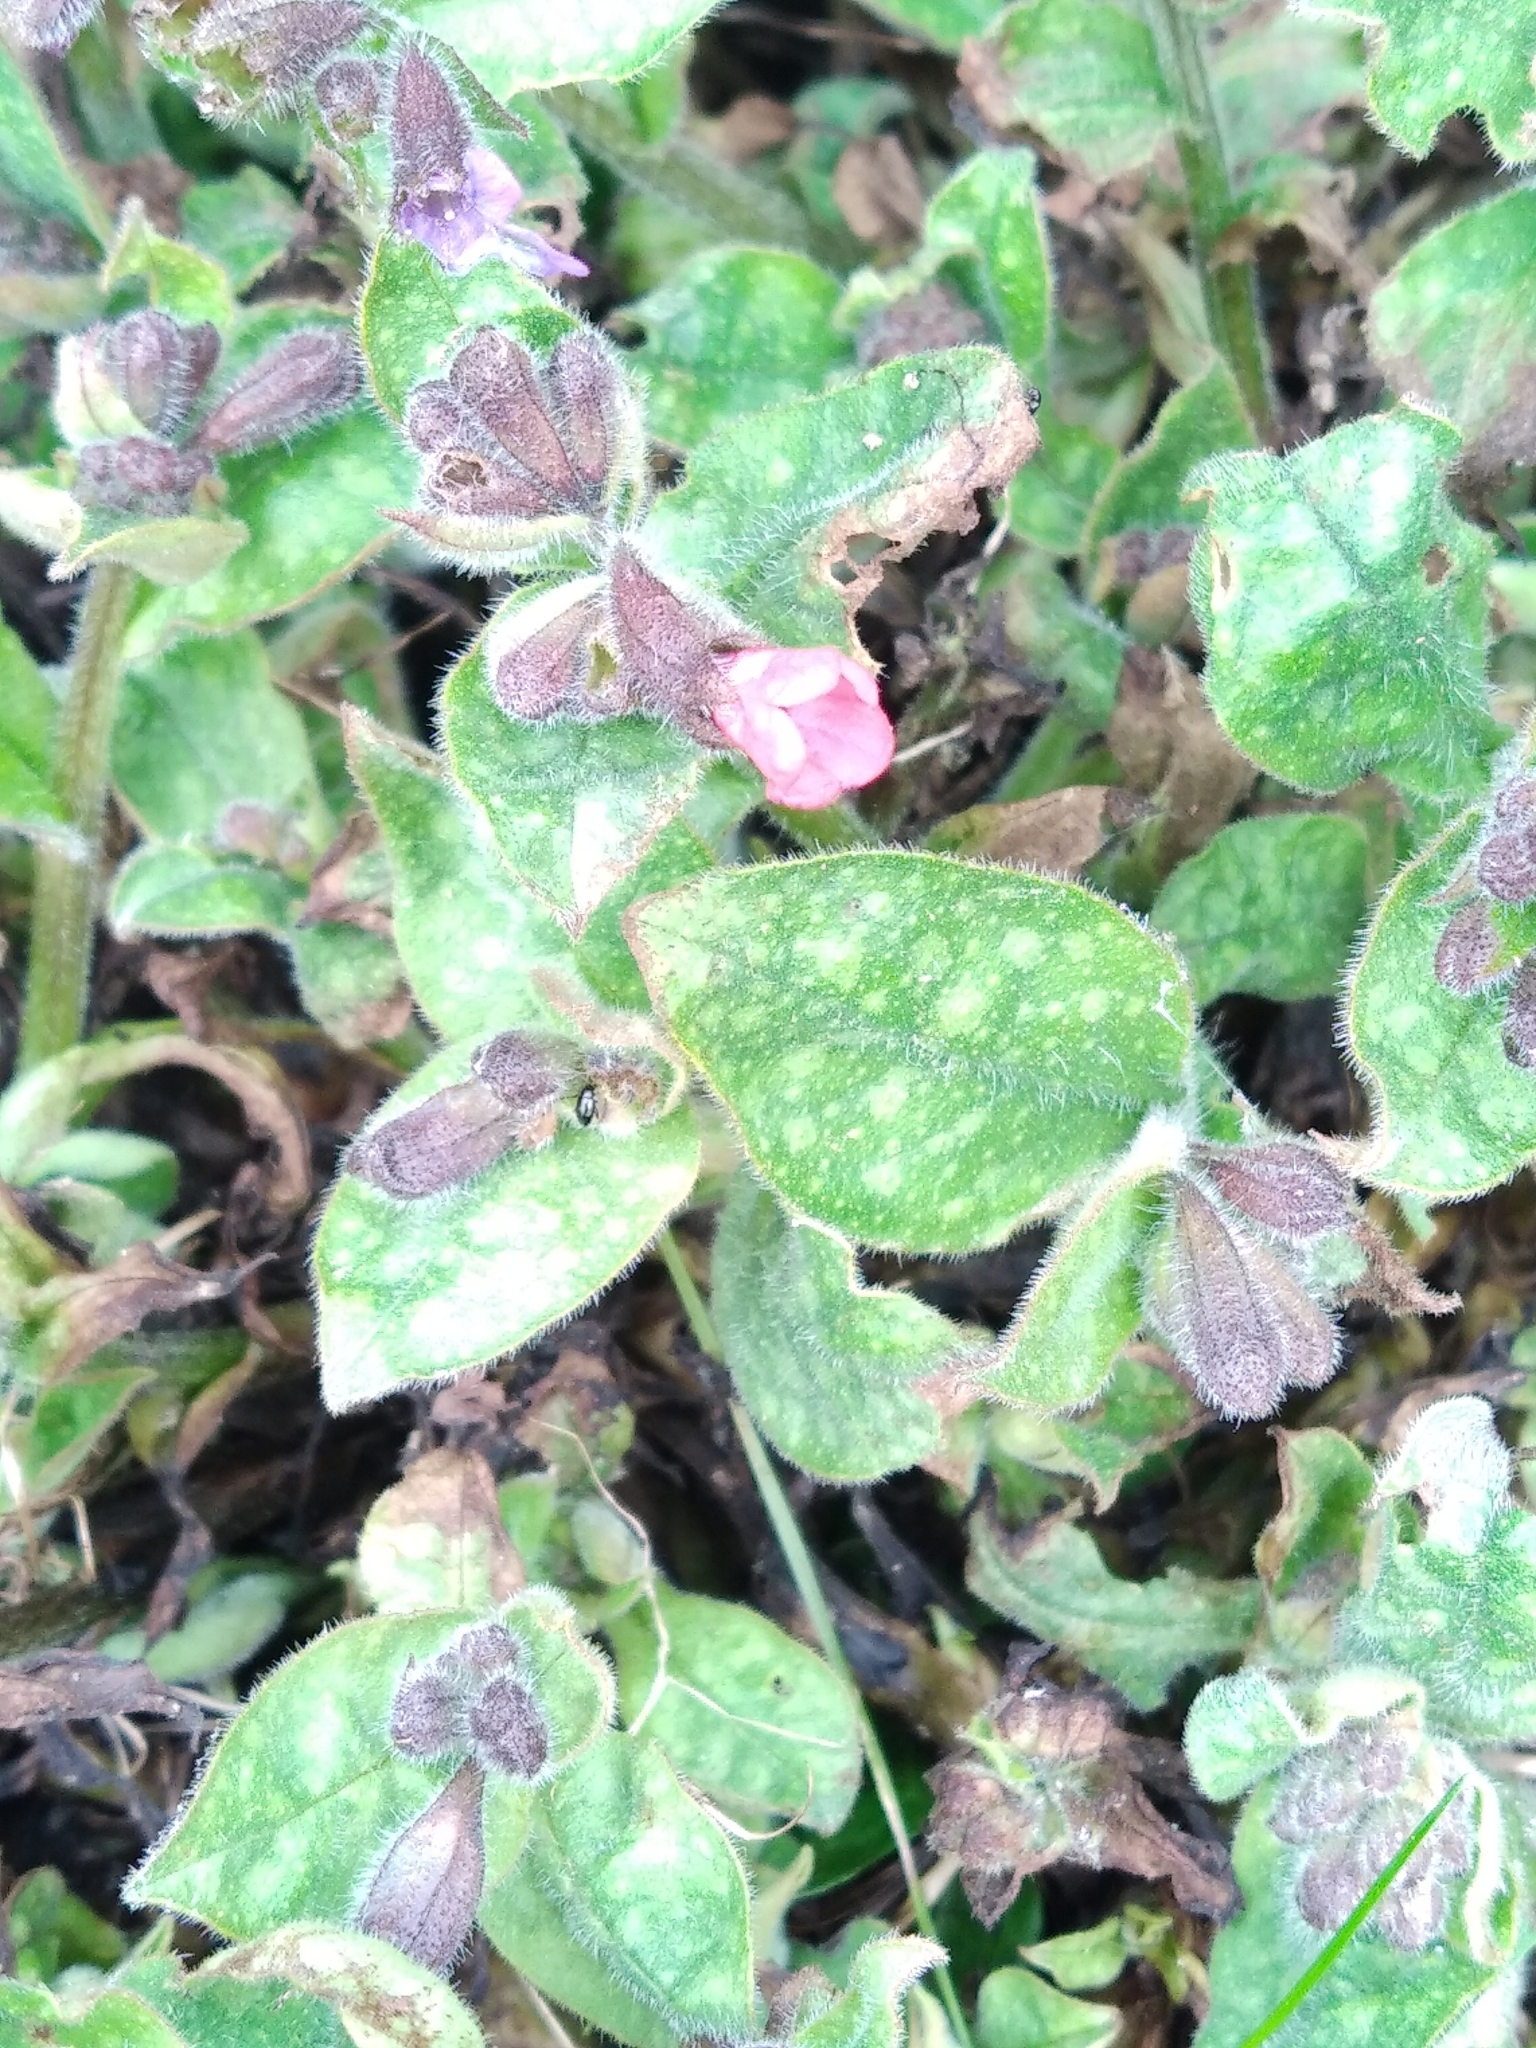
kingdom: Plantae
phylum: Tracheophyta
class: Magnoliopsida
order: Boraginales
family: Boraginaceae
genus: Pulmonaria
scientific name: Pulmonaria officinalis
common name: Lungwort
